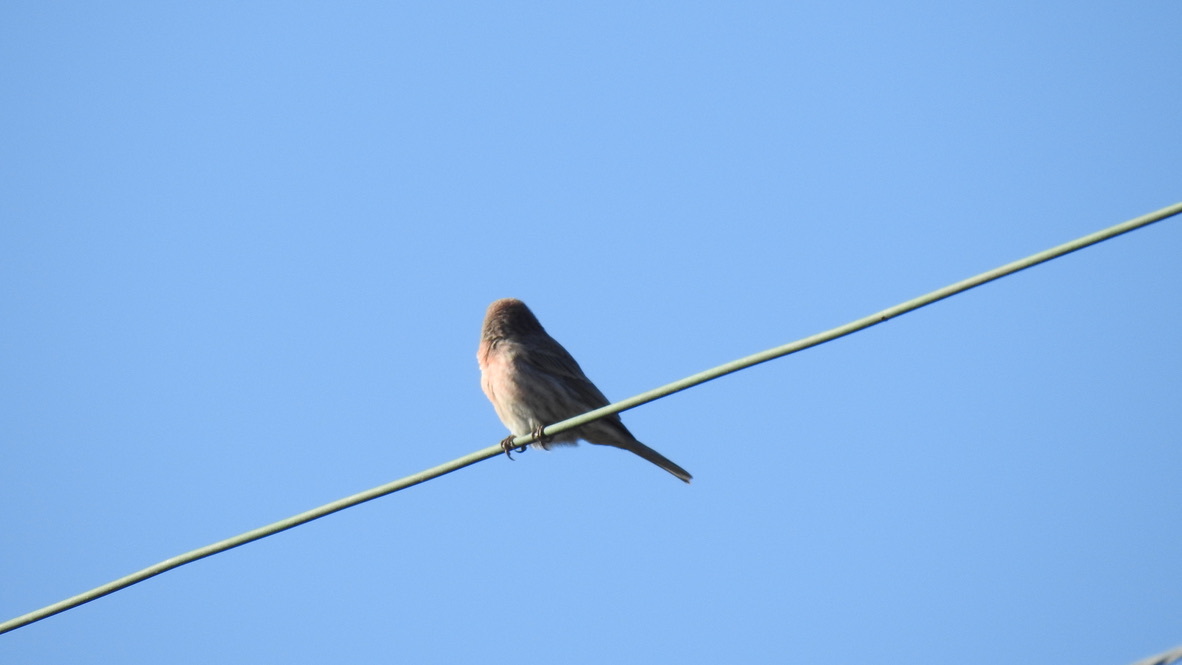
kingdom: Animalia
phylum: Chordata
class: Aves
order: Passeriformes
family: Fringillidae
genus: Haemorhous
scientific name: Haemorhous mexicanus
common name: House finch
